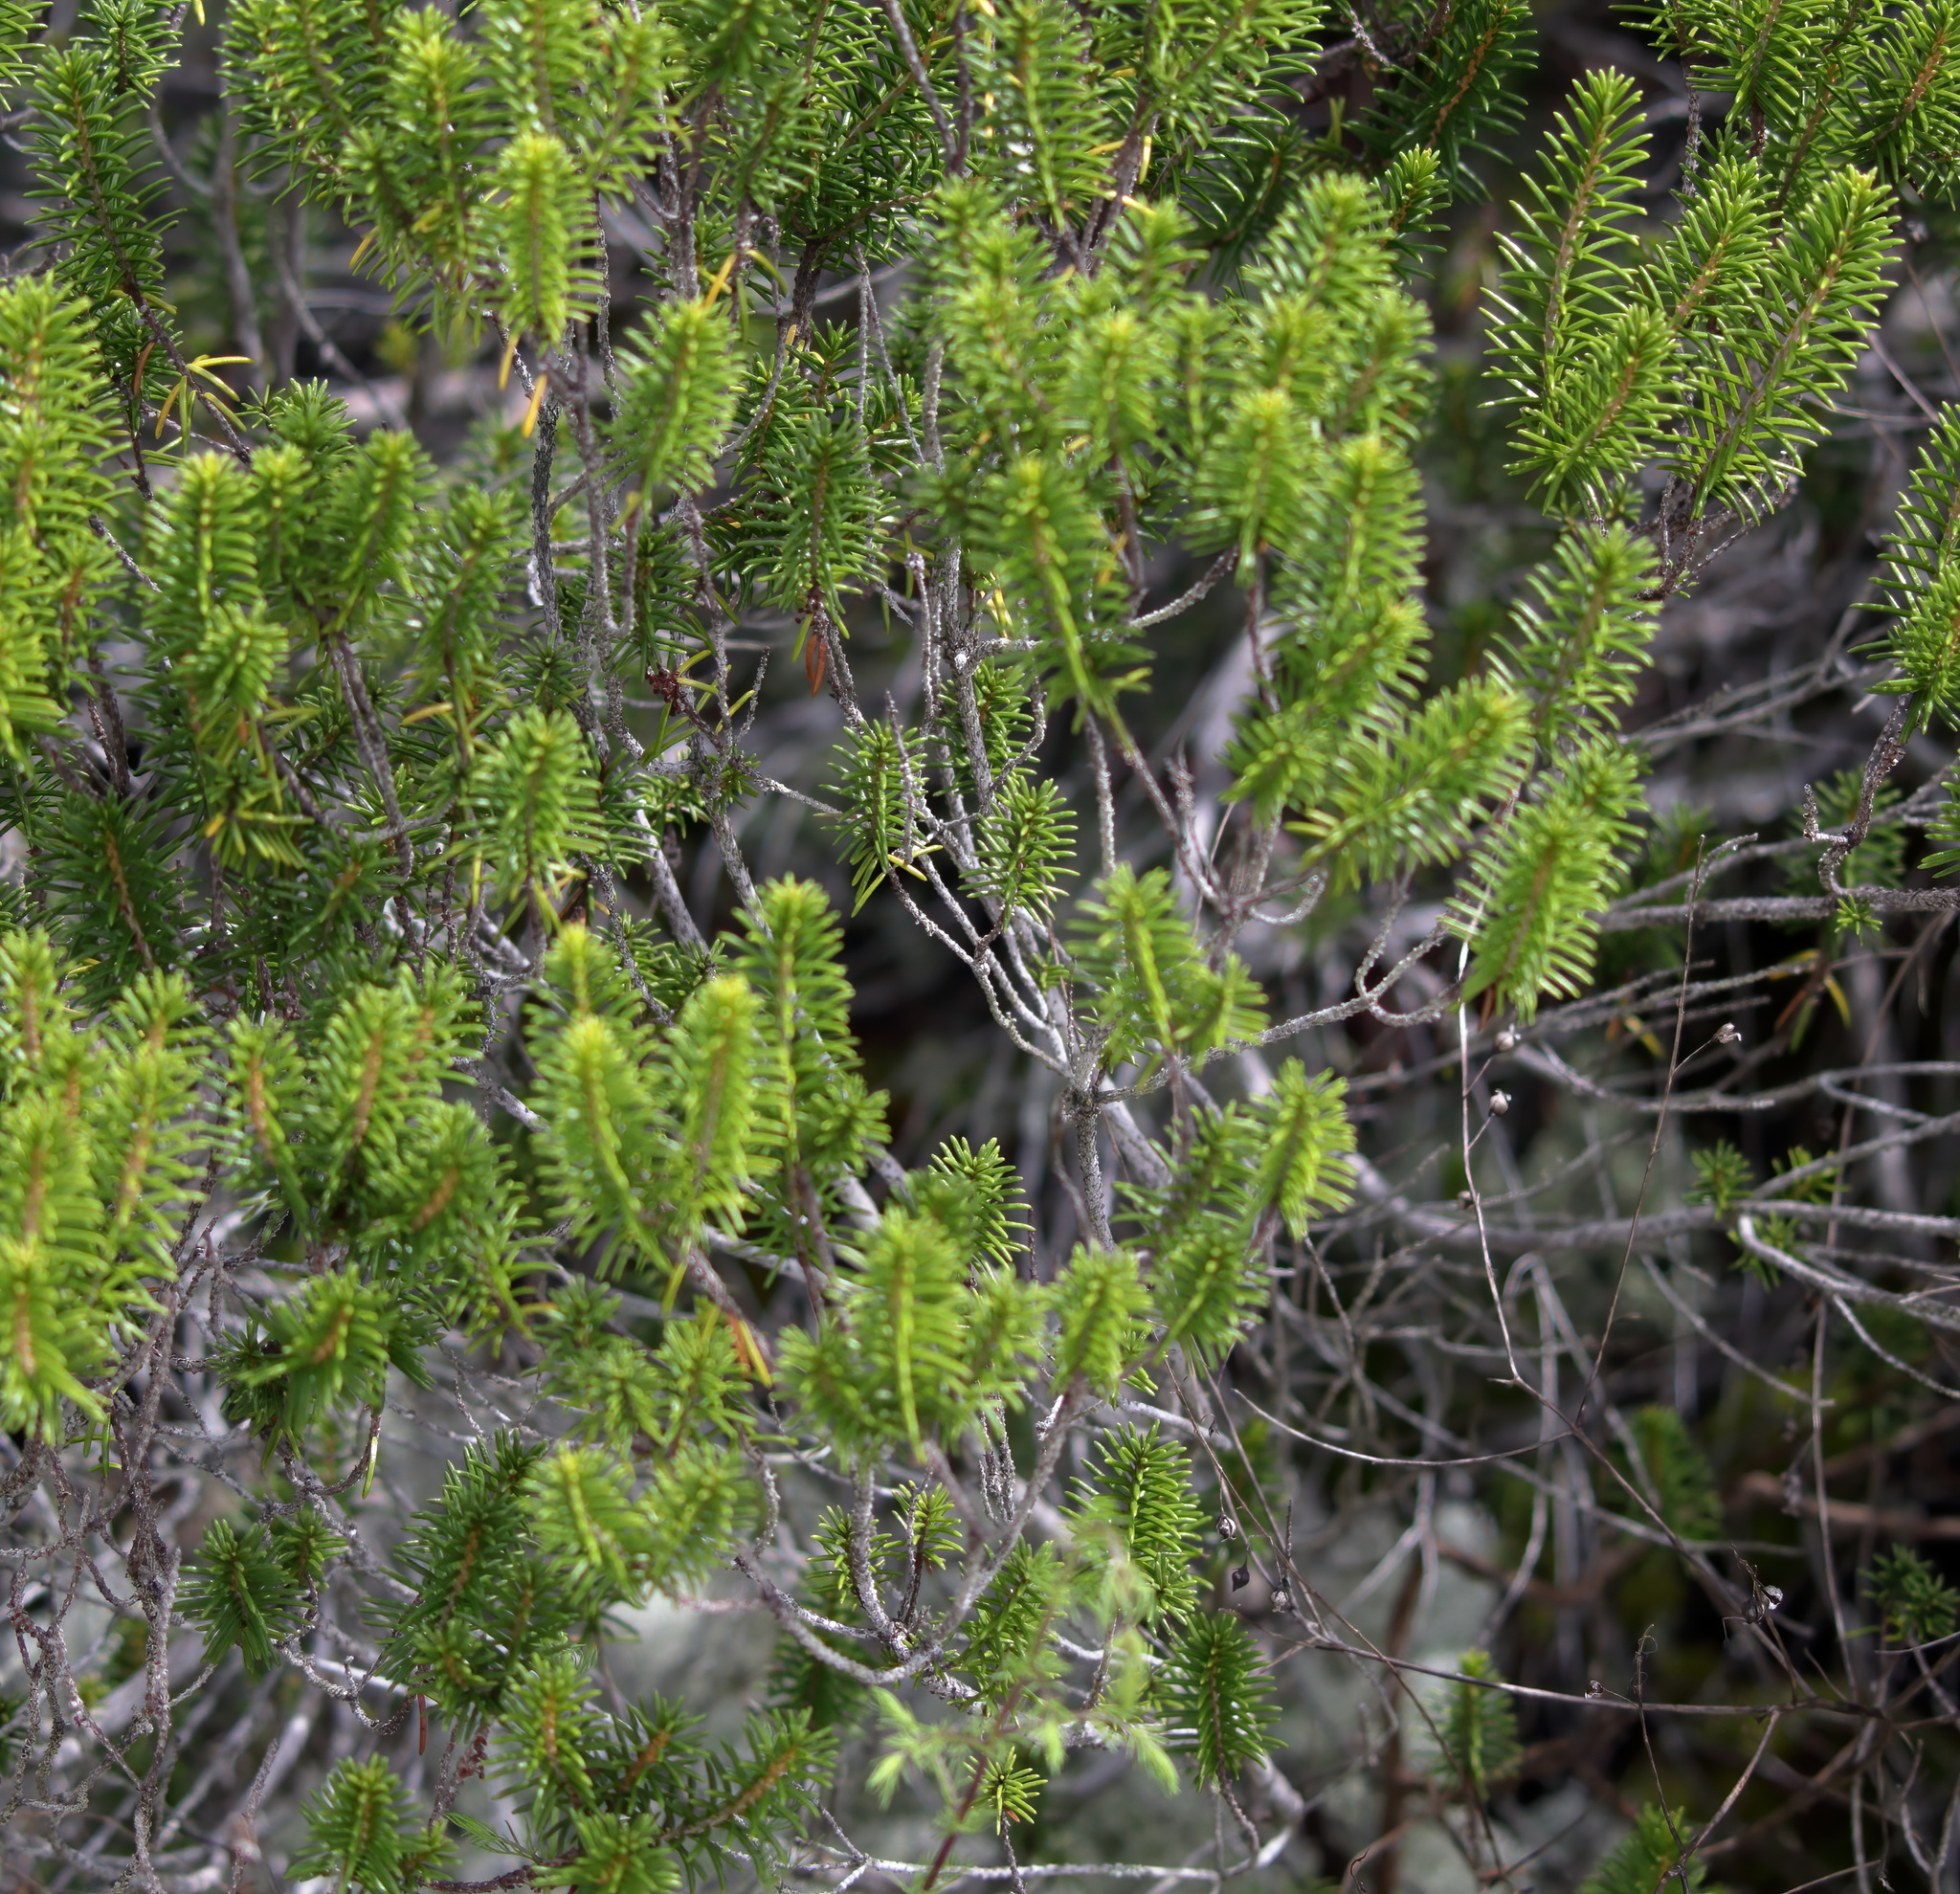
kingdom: Plantae
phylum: Tracheophyta
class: Magnoliopsida
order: Ericales
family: Ericaceae
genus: Ceratiola
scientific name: Ceratiola ericoides
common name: Sandhill-rosemary
